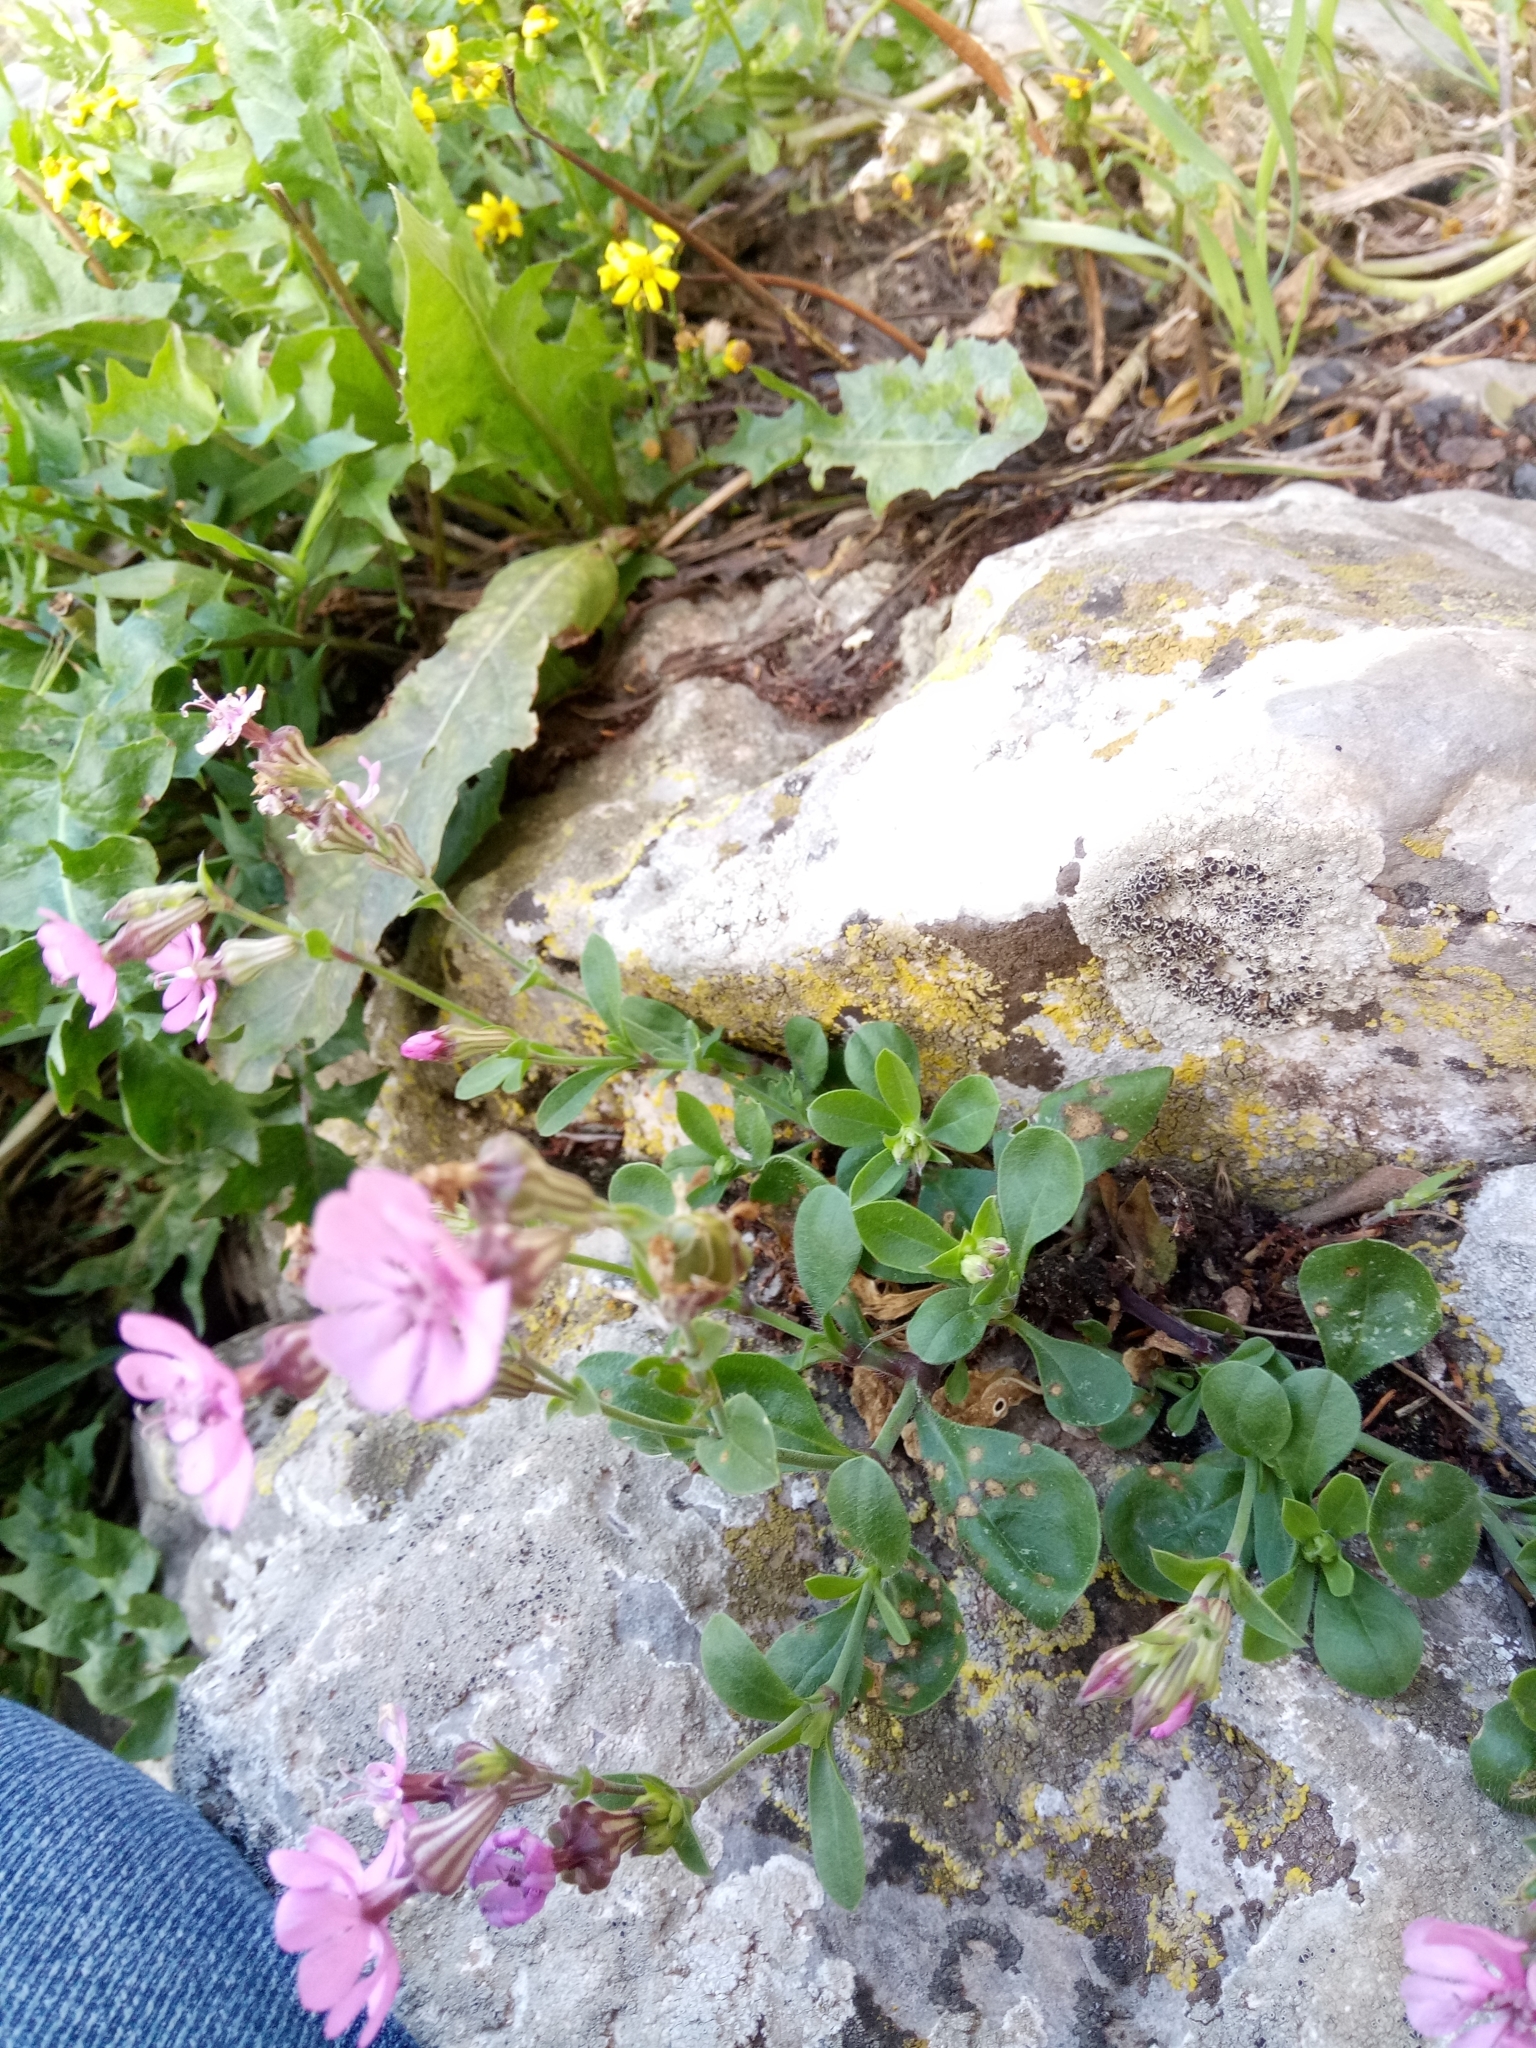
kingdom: Plantae
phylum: Tracheophyta
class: Magnoliopsida
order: Caryophyllales
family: Caryophyllaceae
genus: Silene
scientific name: Silene secundiflora
